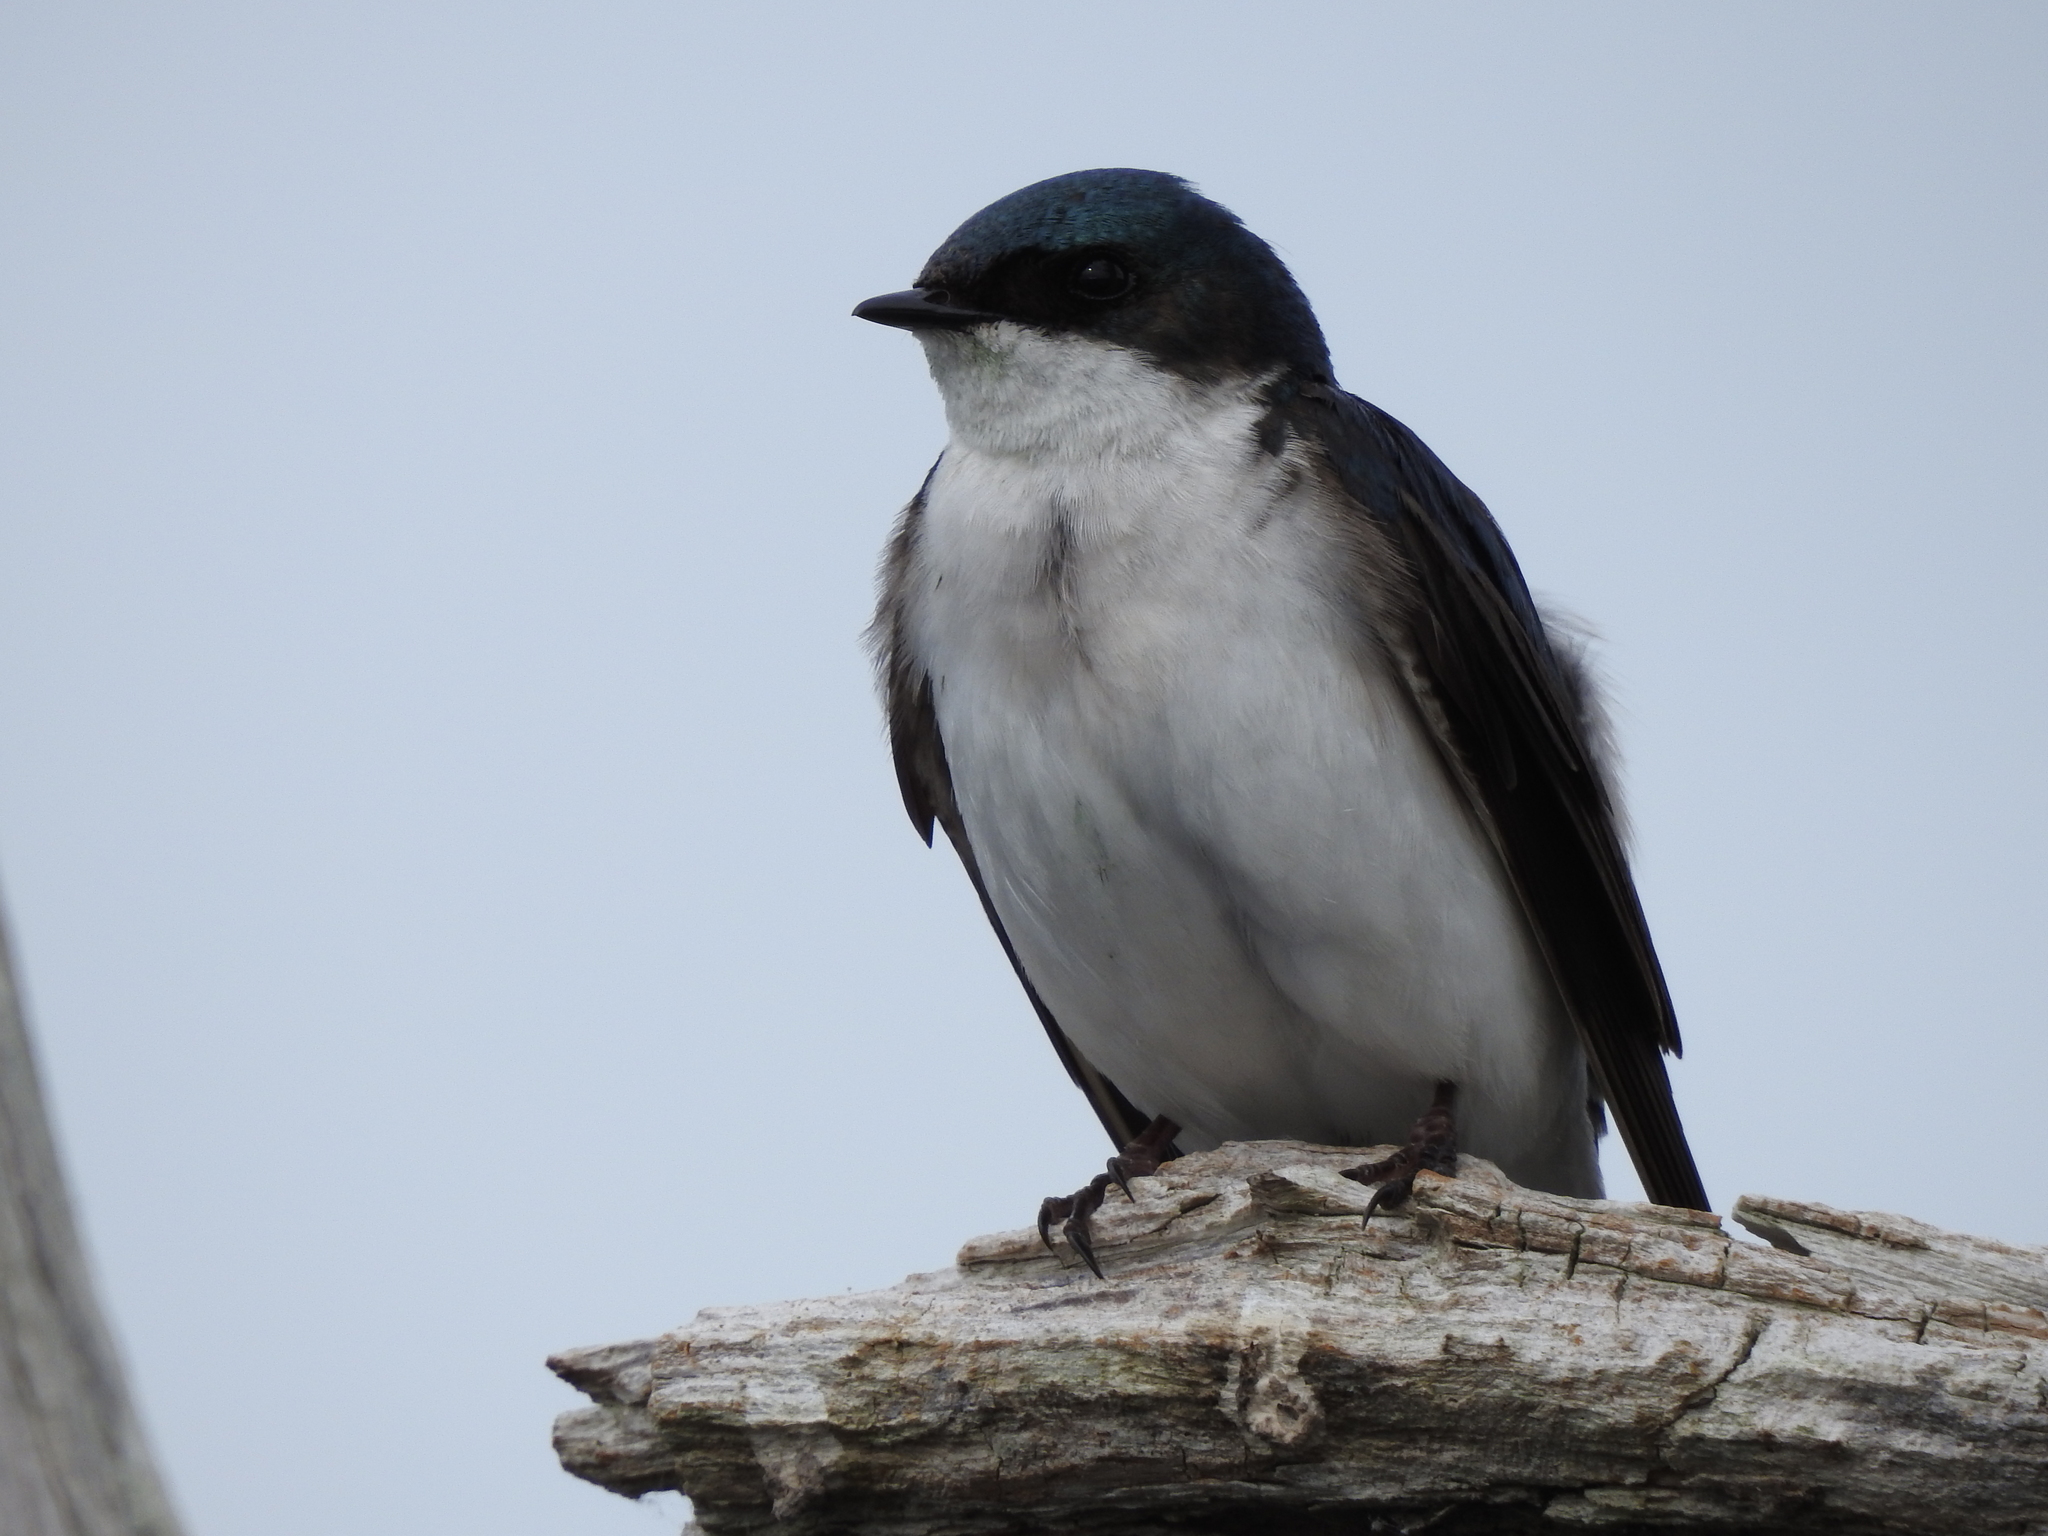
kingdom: Animalia
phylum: Chordata
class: Aves
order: Passeriformes
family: Hirundinidae
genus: Tachycineta
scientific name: Tachycineta bicolor
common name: Tree swallow
